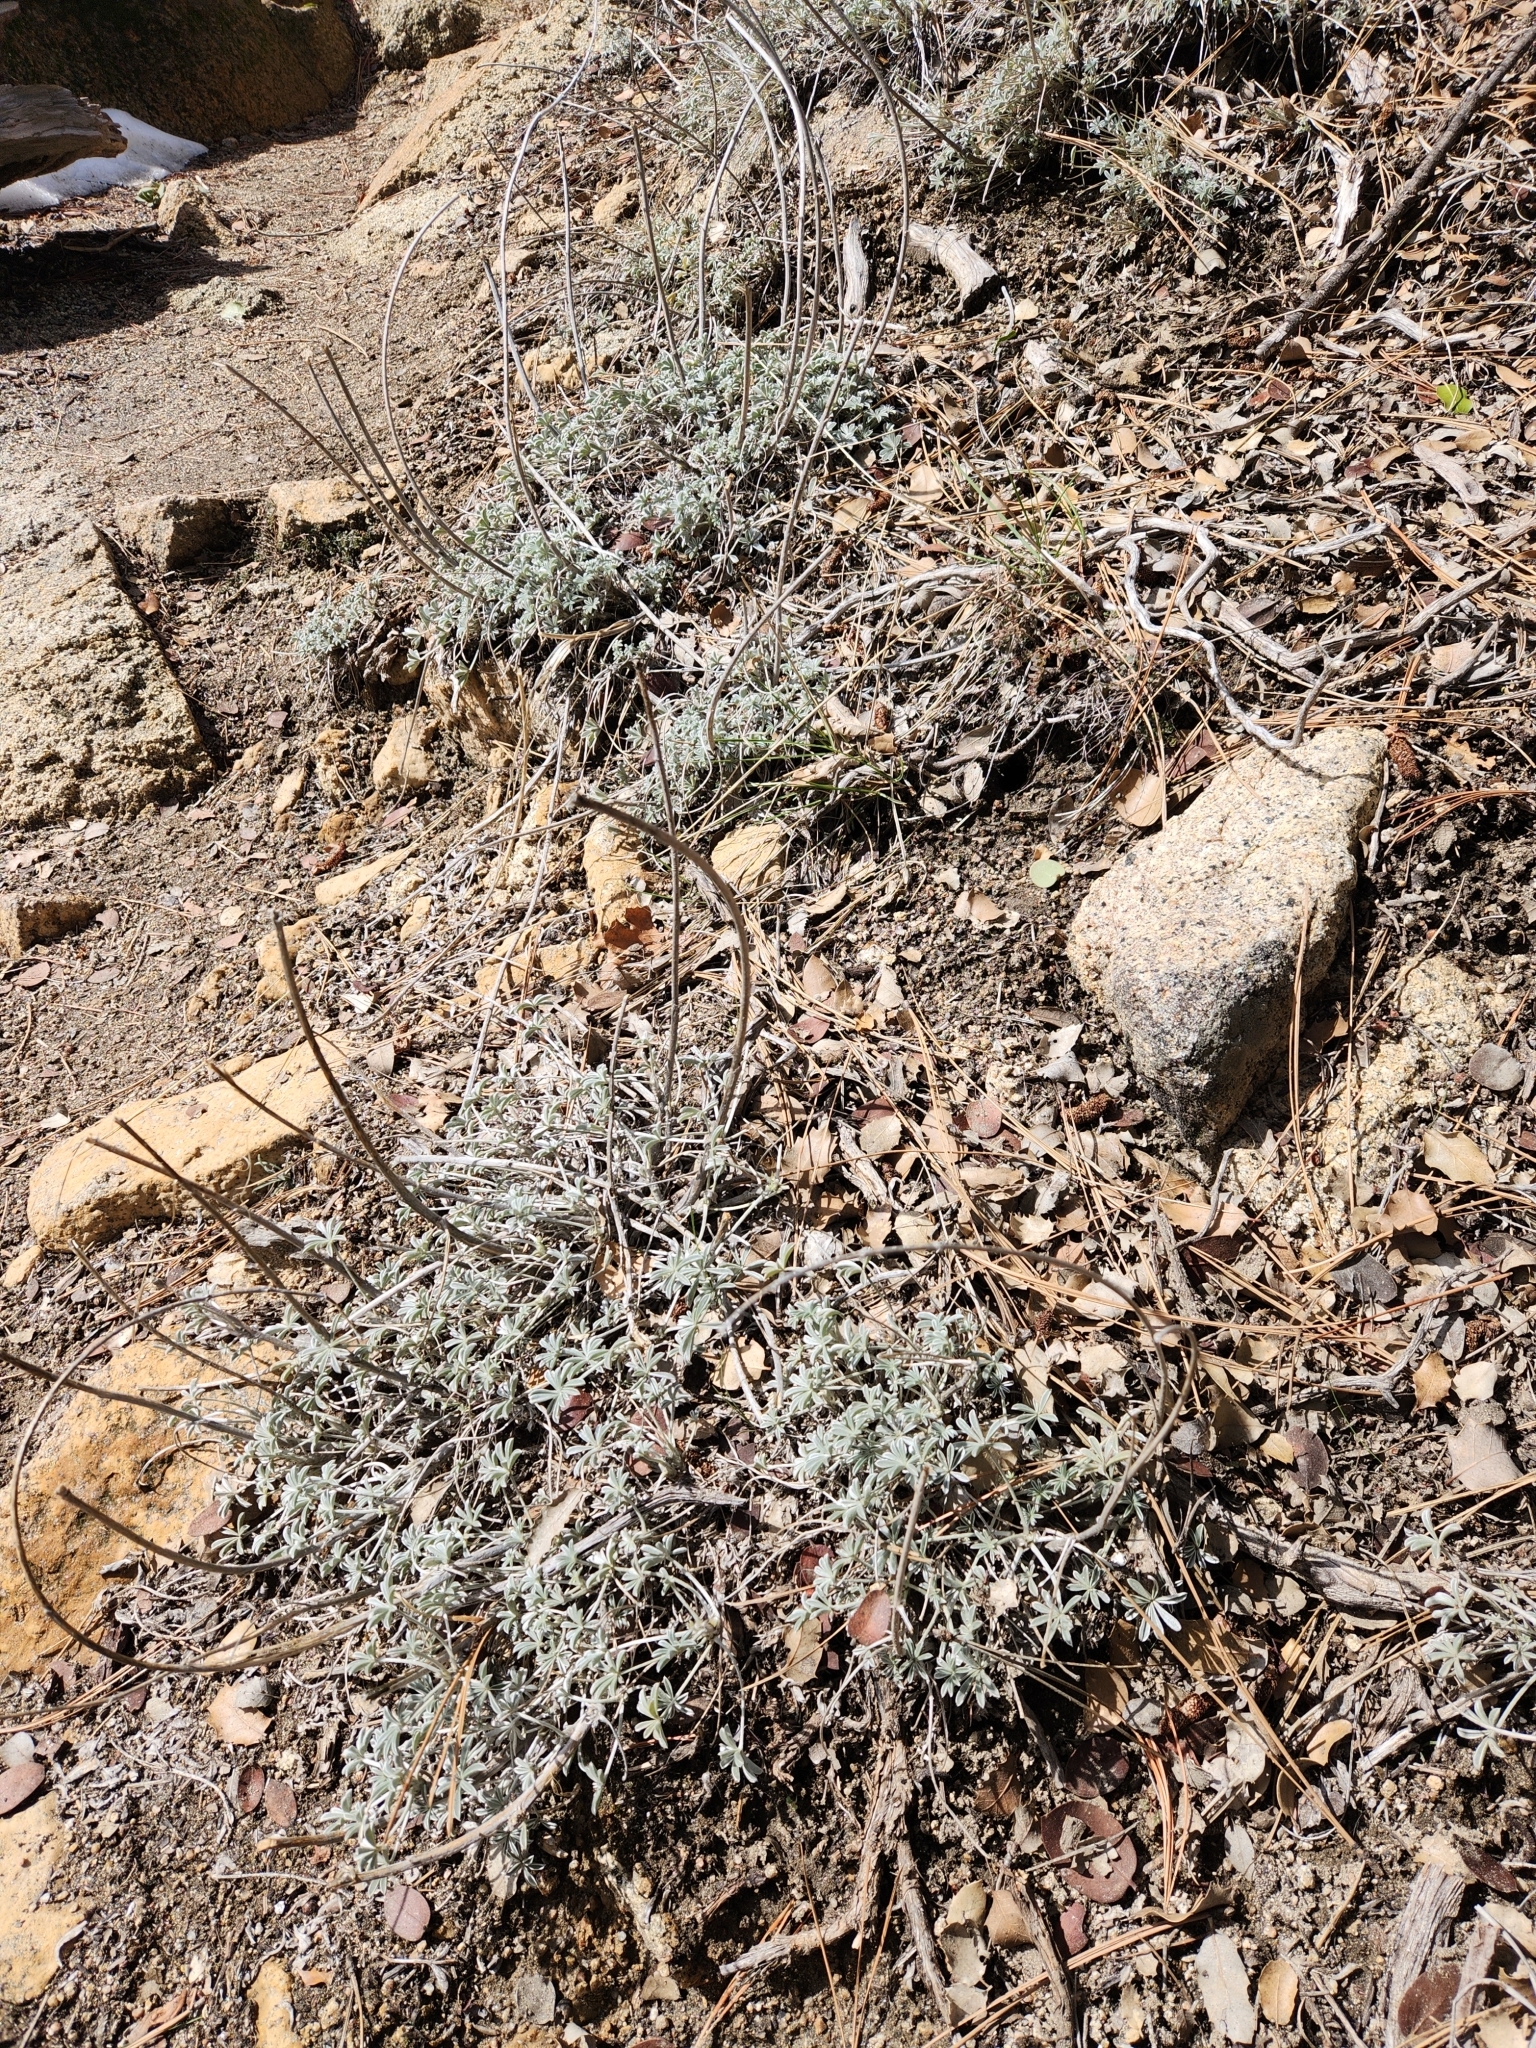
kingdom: Plantae
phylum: Tracheophyta
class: Magnoliopsida
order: Fabales
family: Fabaceae
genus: Lupinus
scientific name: Lupinus excubitus
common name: Grape soda lupine
